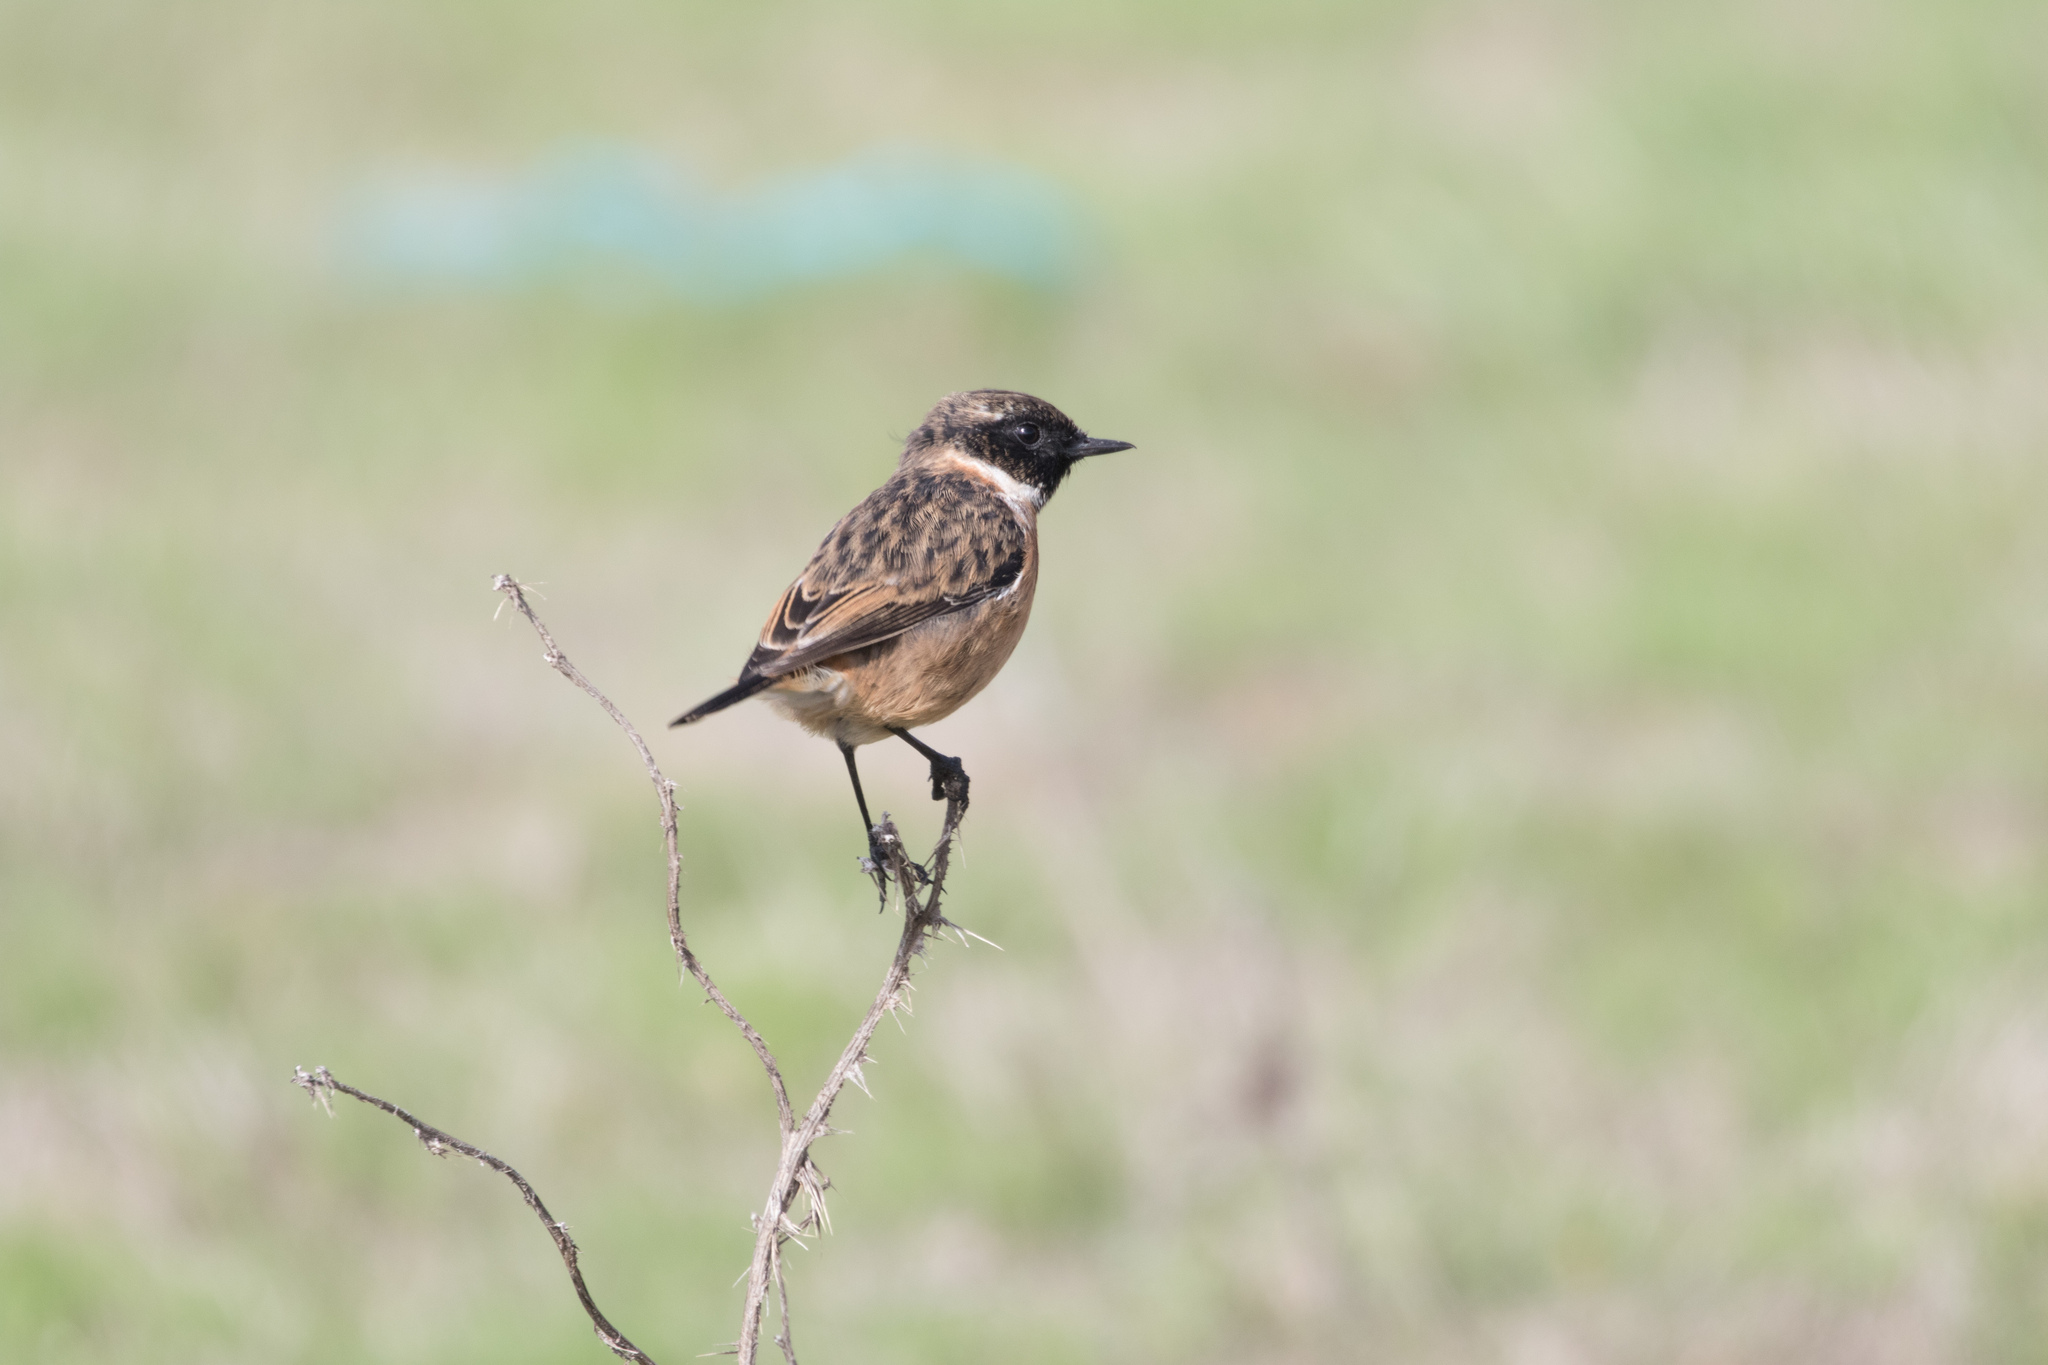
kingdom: Animalia
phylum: Chordata
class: Aves
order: Passeriformes
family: Muscicapidae
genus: Saxicola
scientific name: Saxicola rubicola
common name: European stonechat
